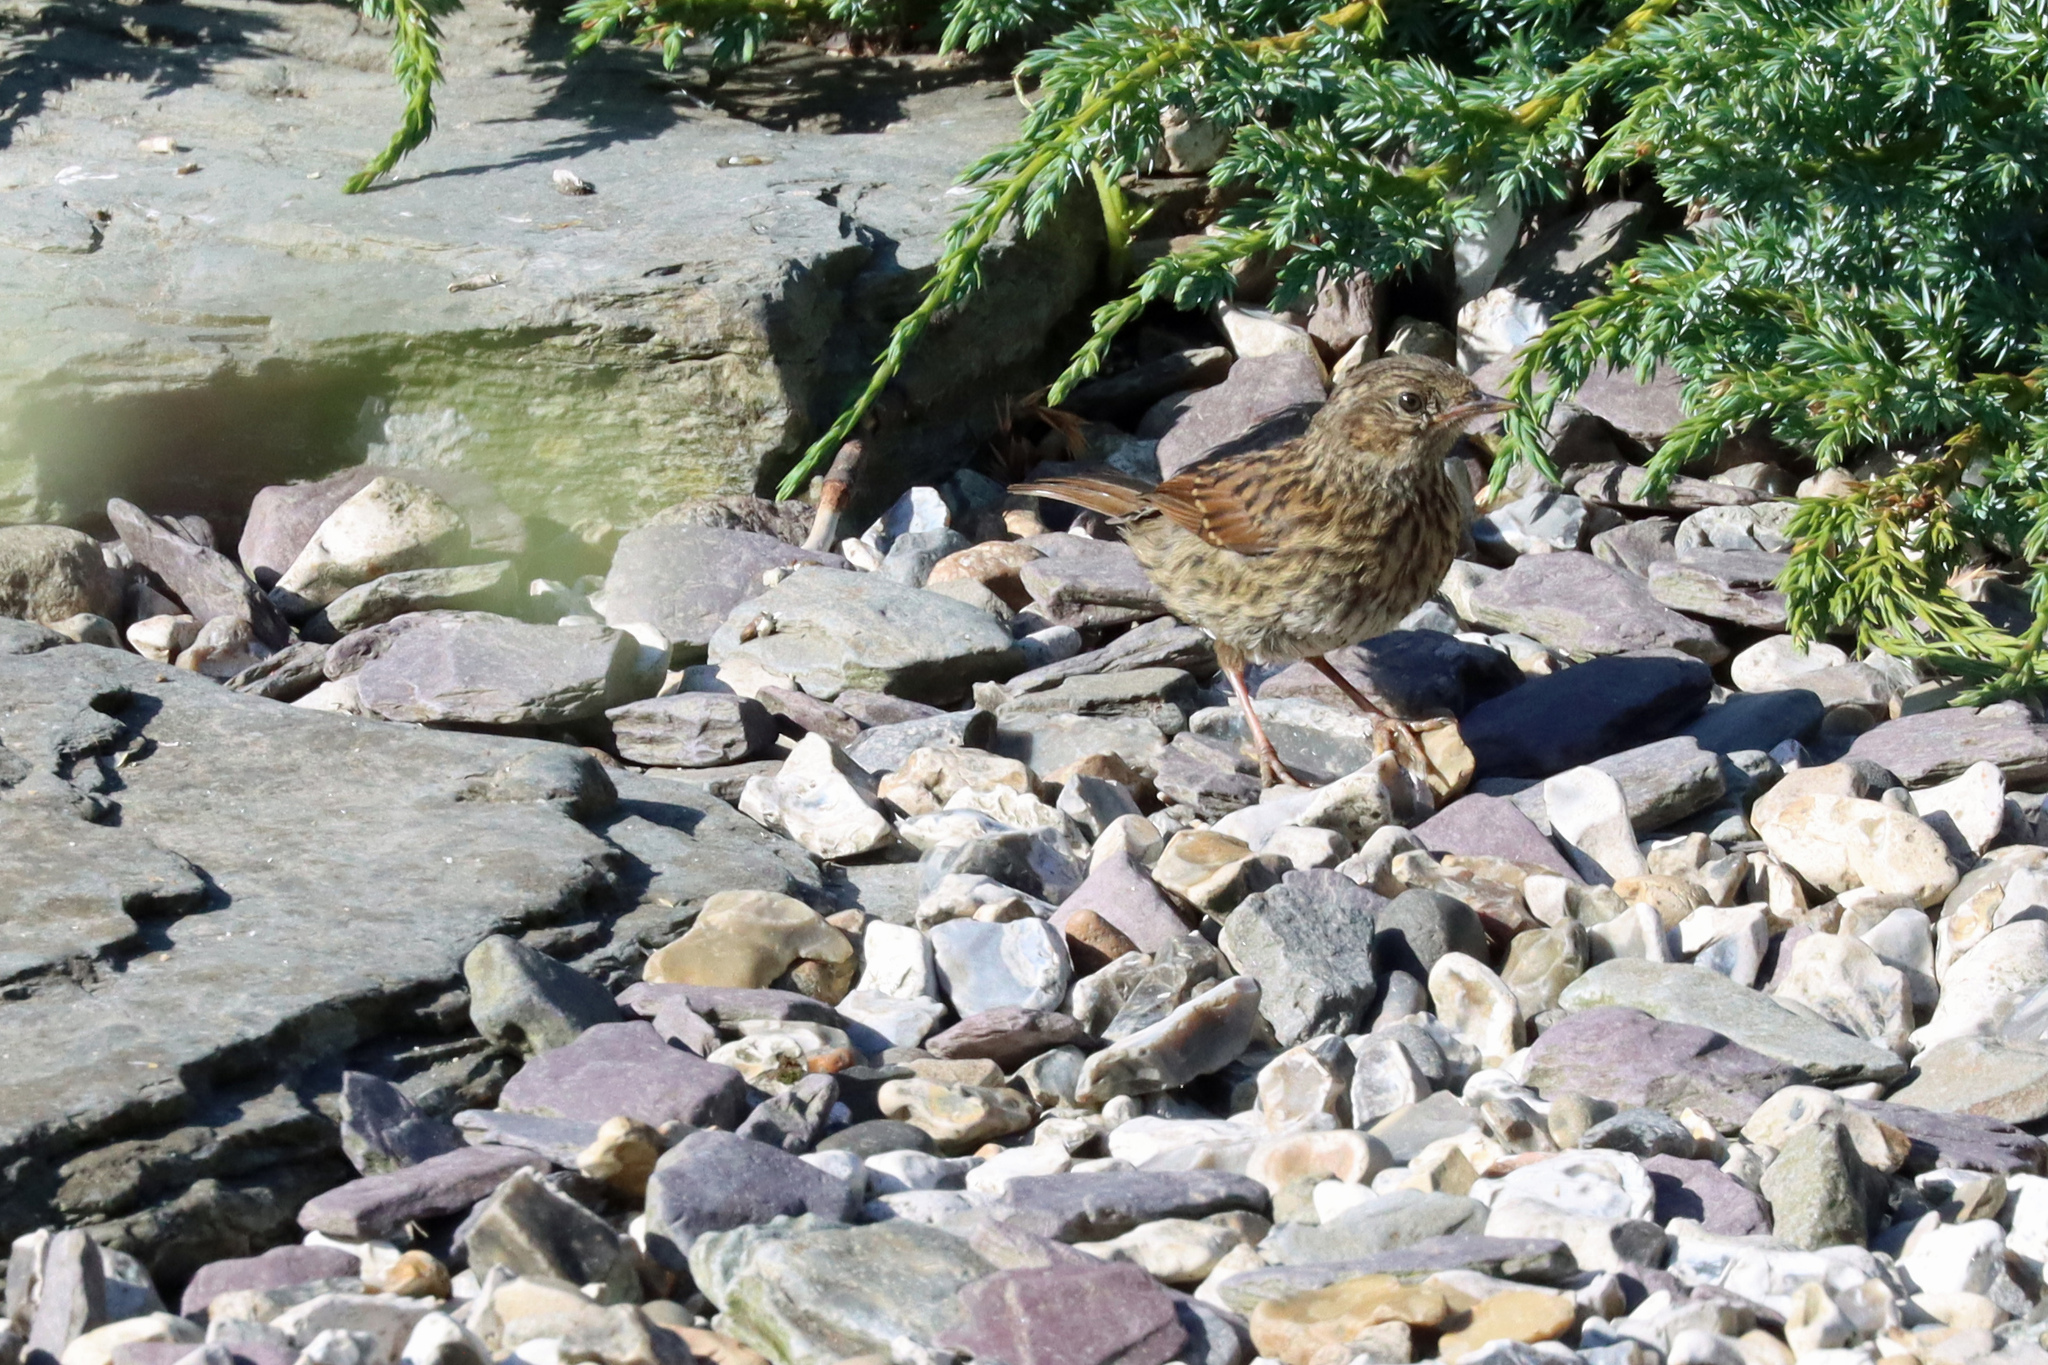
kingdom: Animalia
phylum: Chordata
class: Aves
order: Passeriformes
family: Prunellidae
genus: Prunella
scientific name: Prunella modularis
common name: Dunnock
